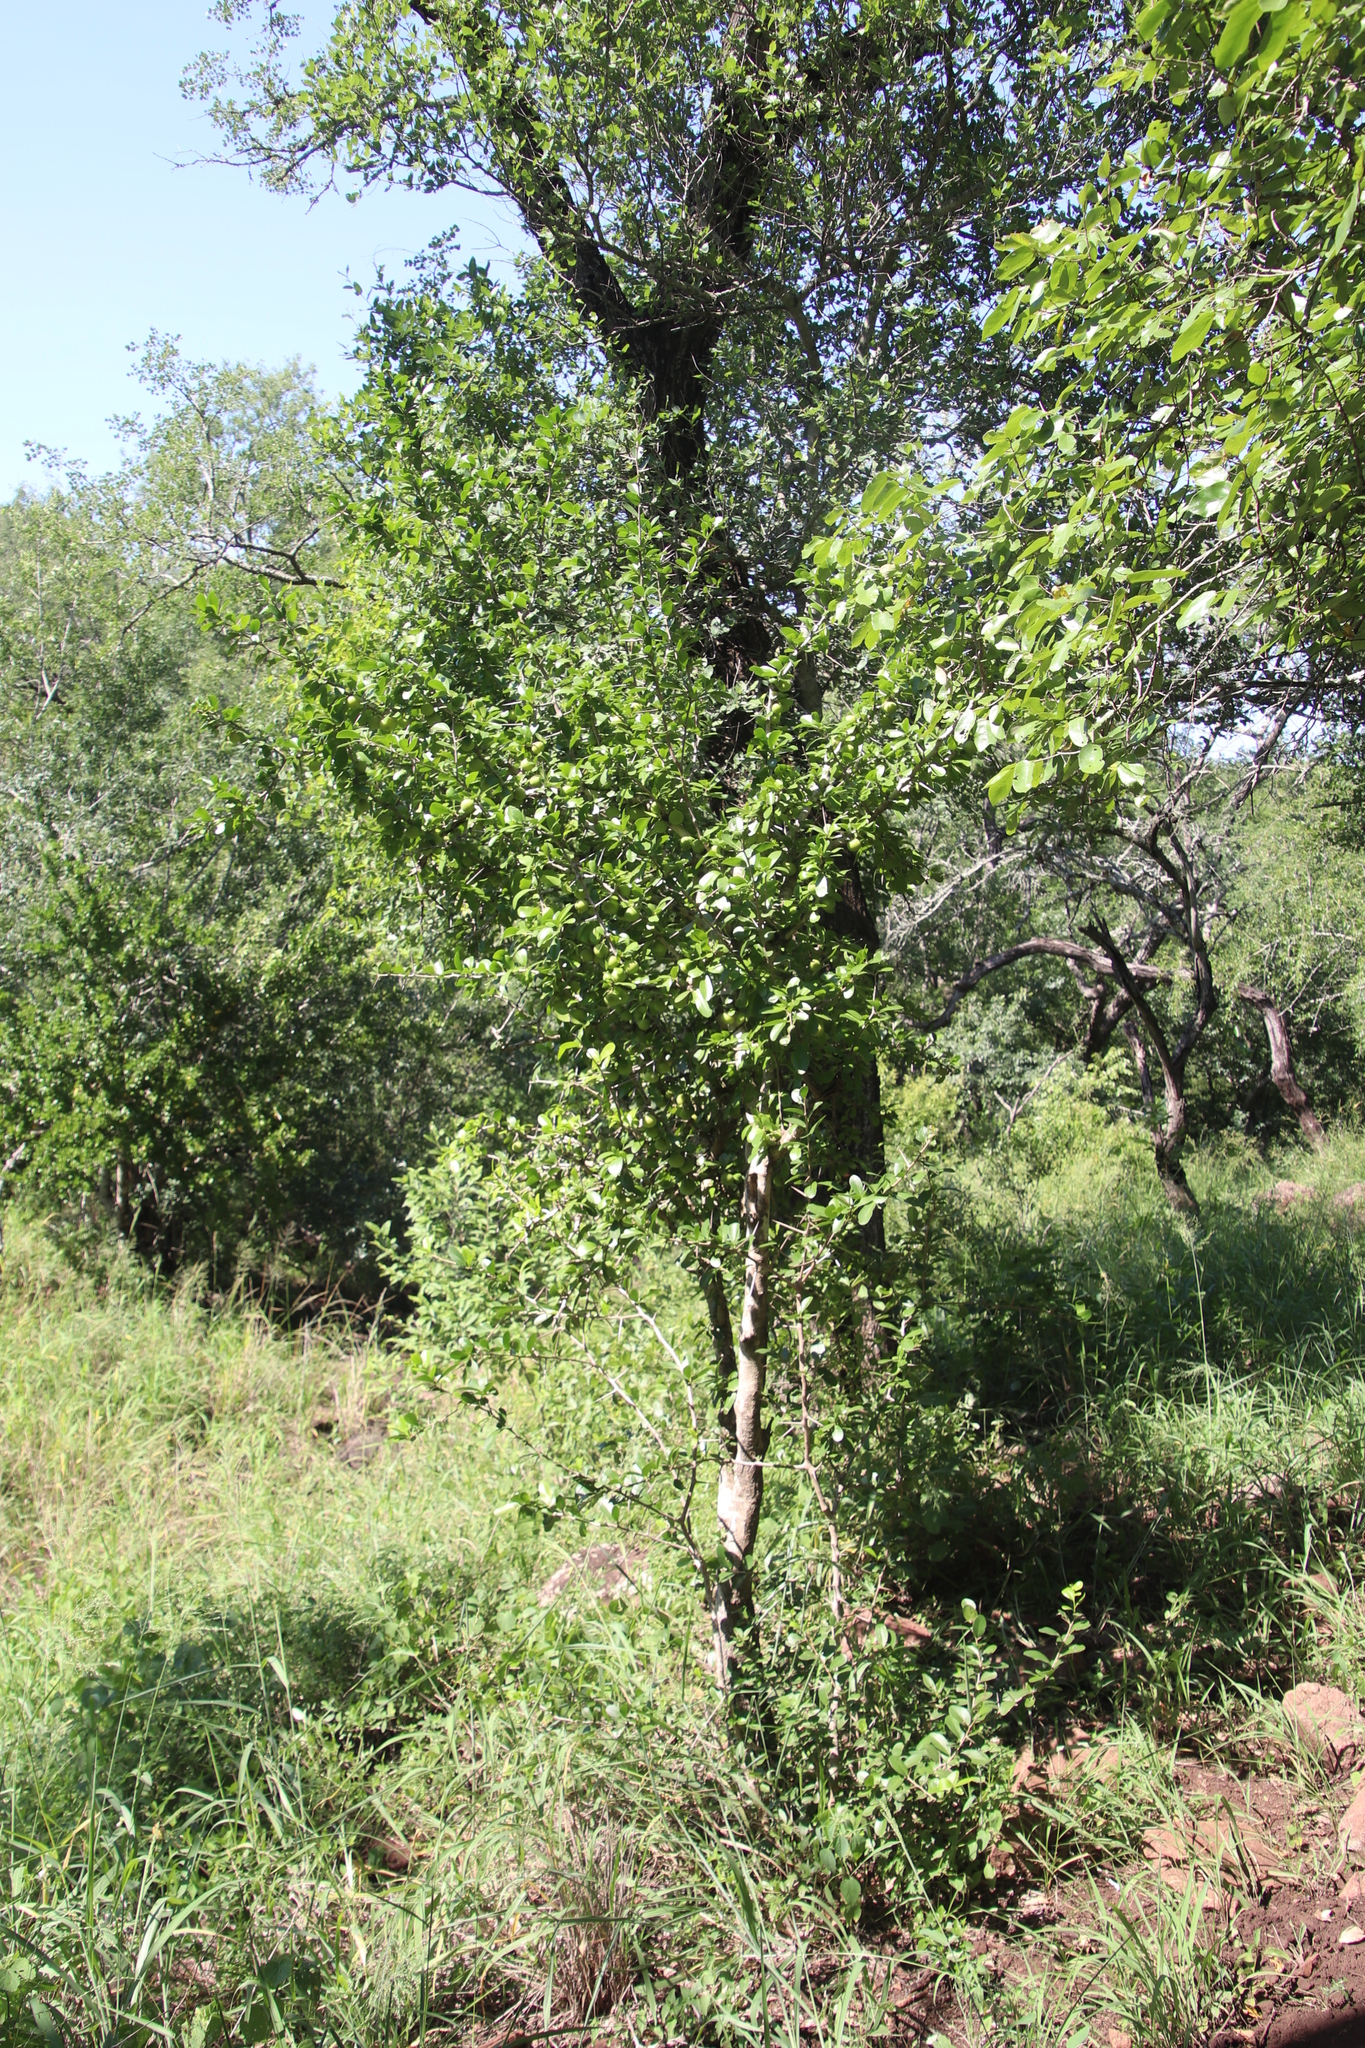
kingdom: Plantae
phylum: Tracheophyta
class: Magnoliopsida
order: Malpighiales
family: Salicaceae
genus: Dovyalis
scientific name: Dovyalis caffra
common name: Kei-apple
